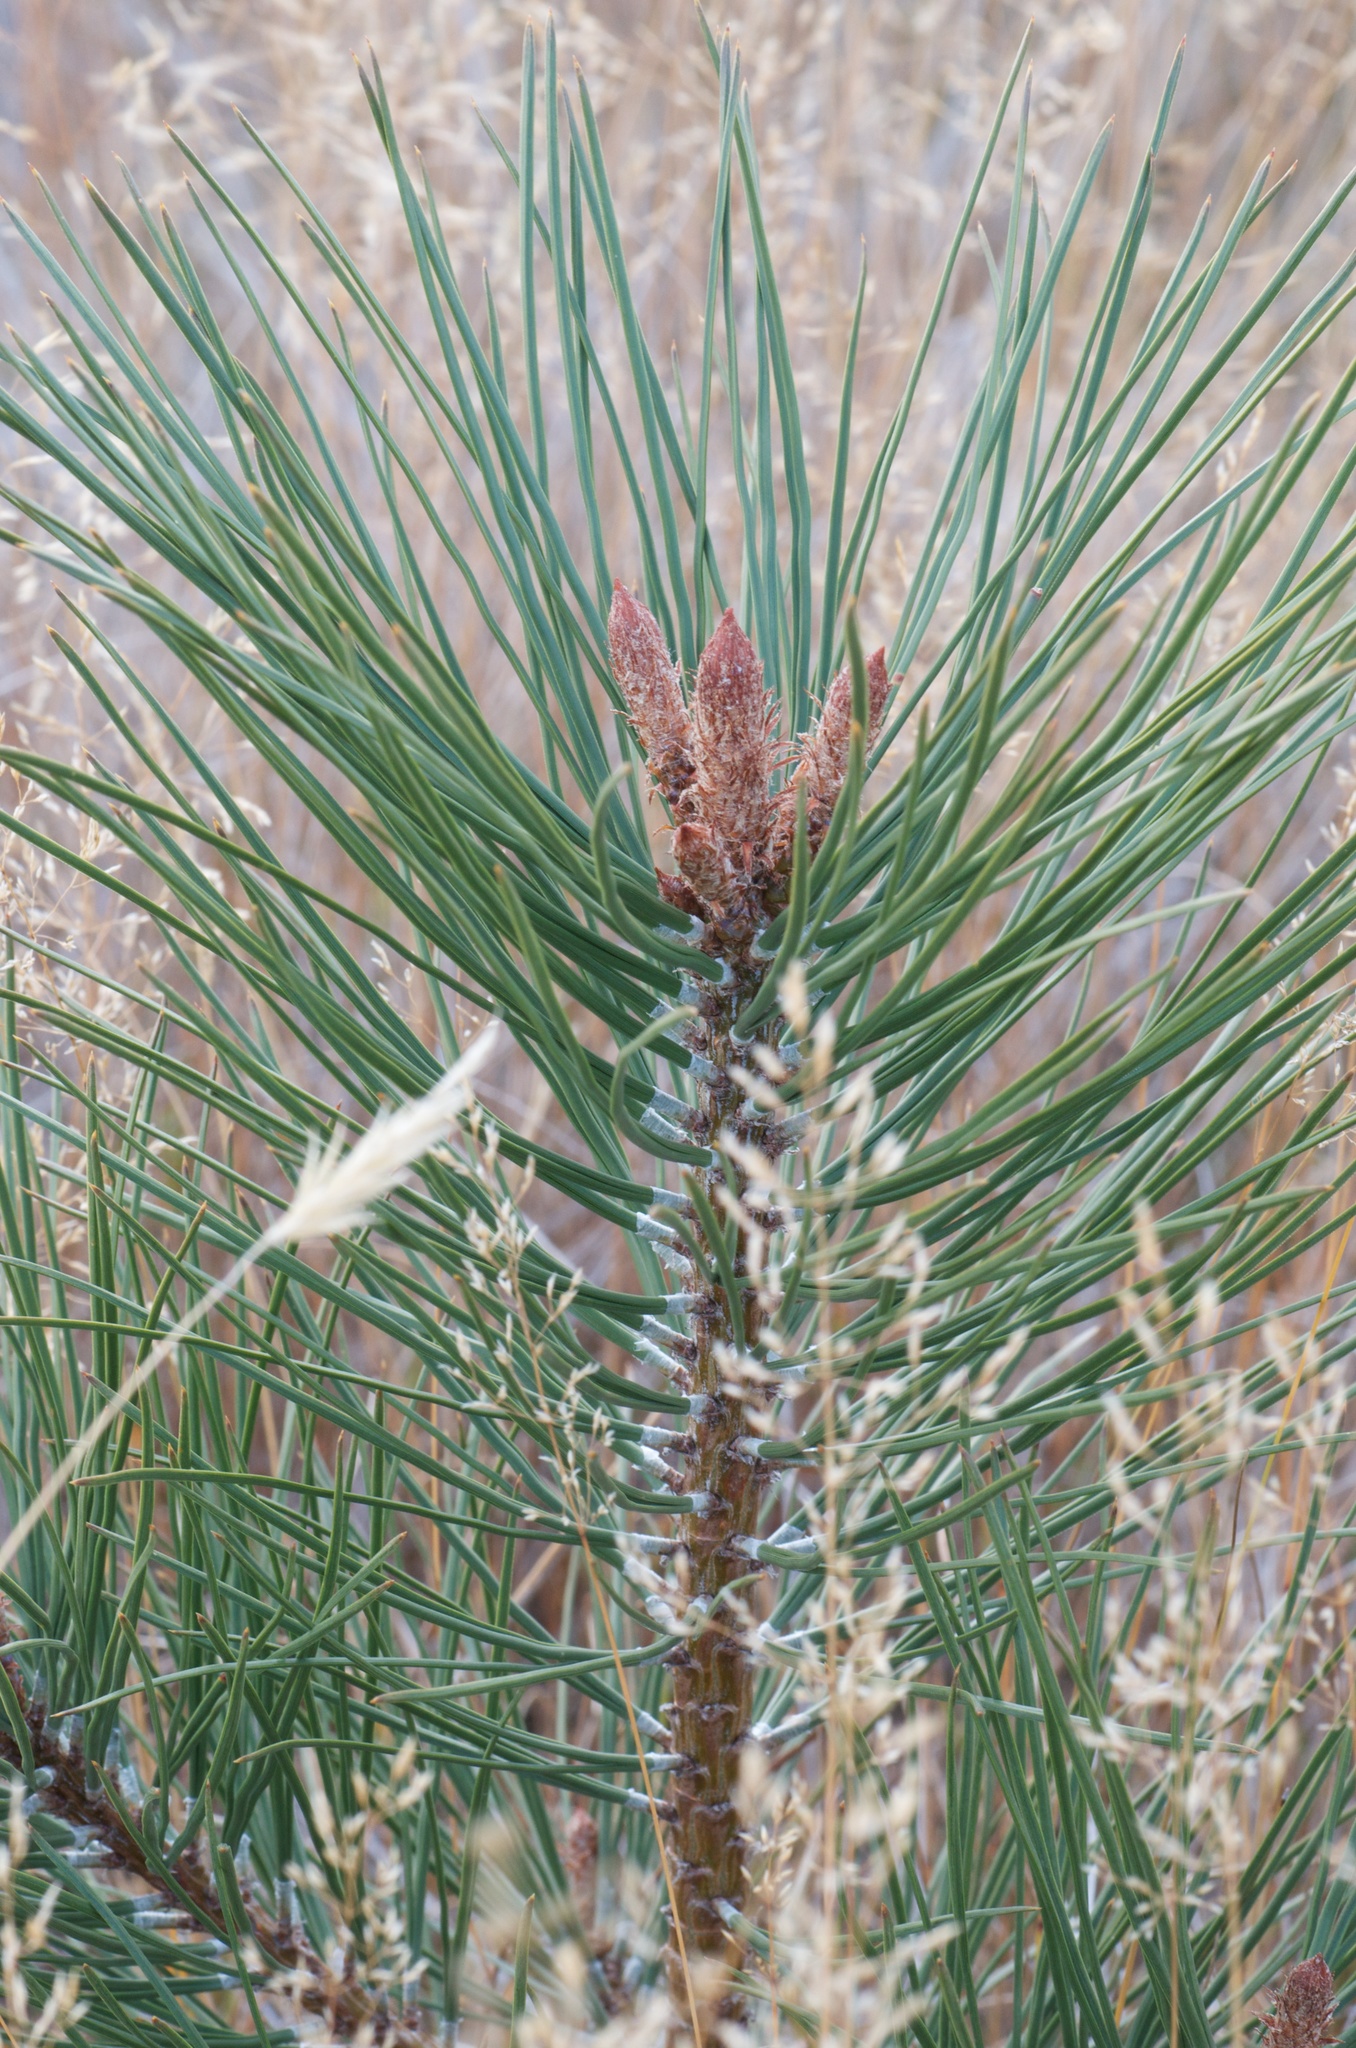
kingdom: Plantae
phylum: Tracheophyta
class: Pinopsida
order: Pinales
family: Pinaceae
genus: Pinus
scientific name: Pinus ponderosa
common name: Western yellow-pine
